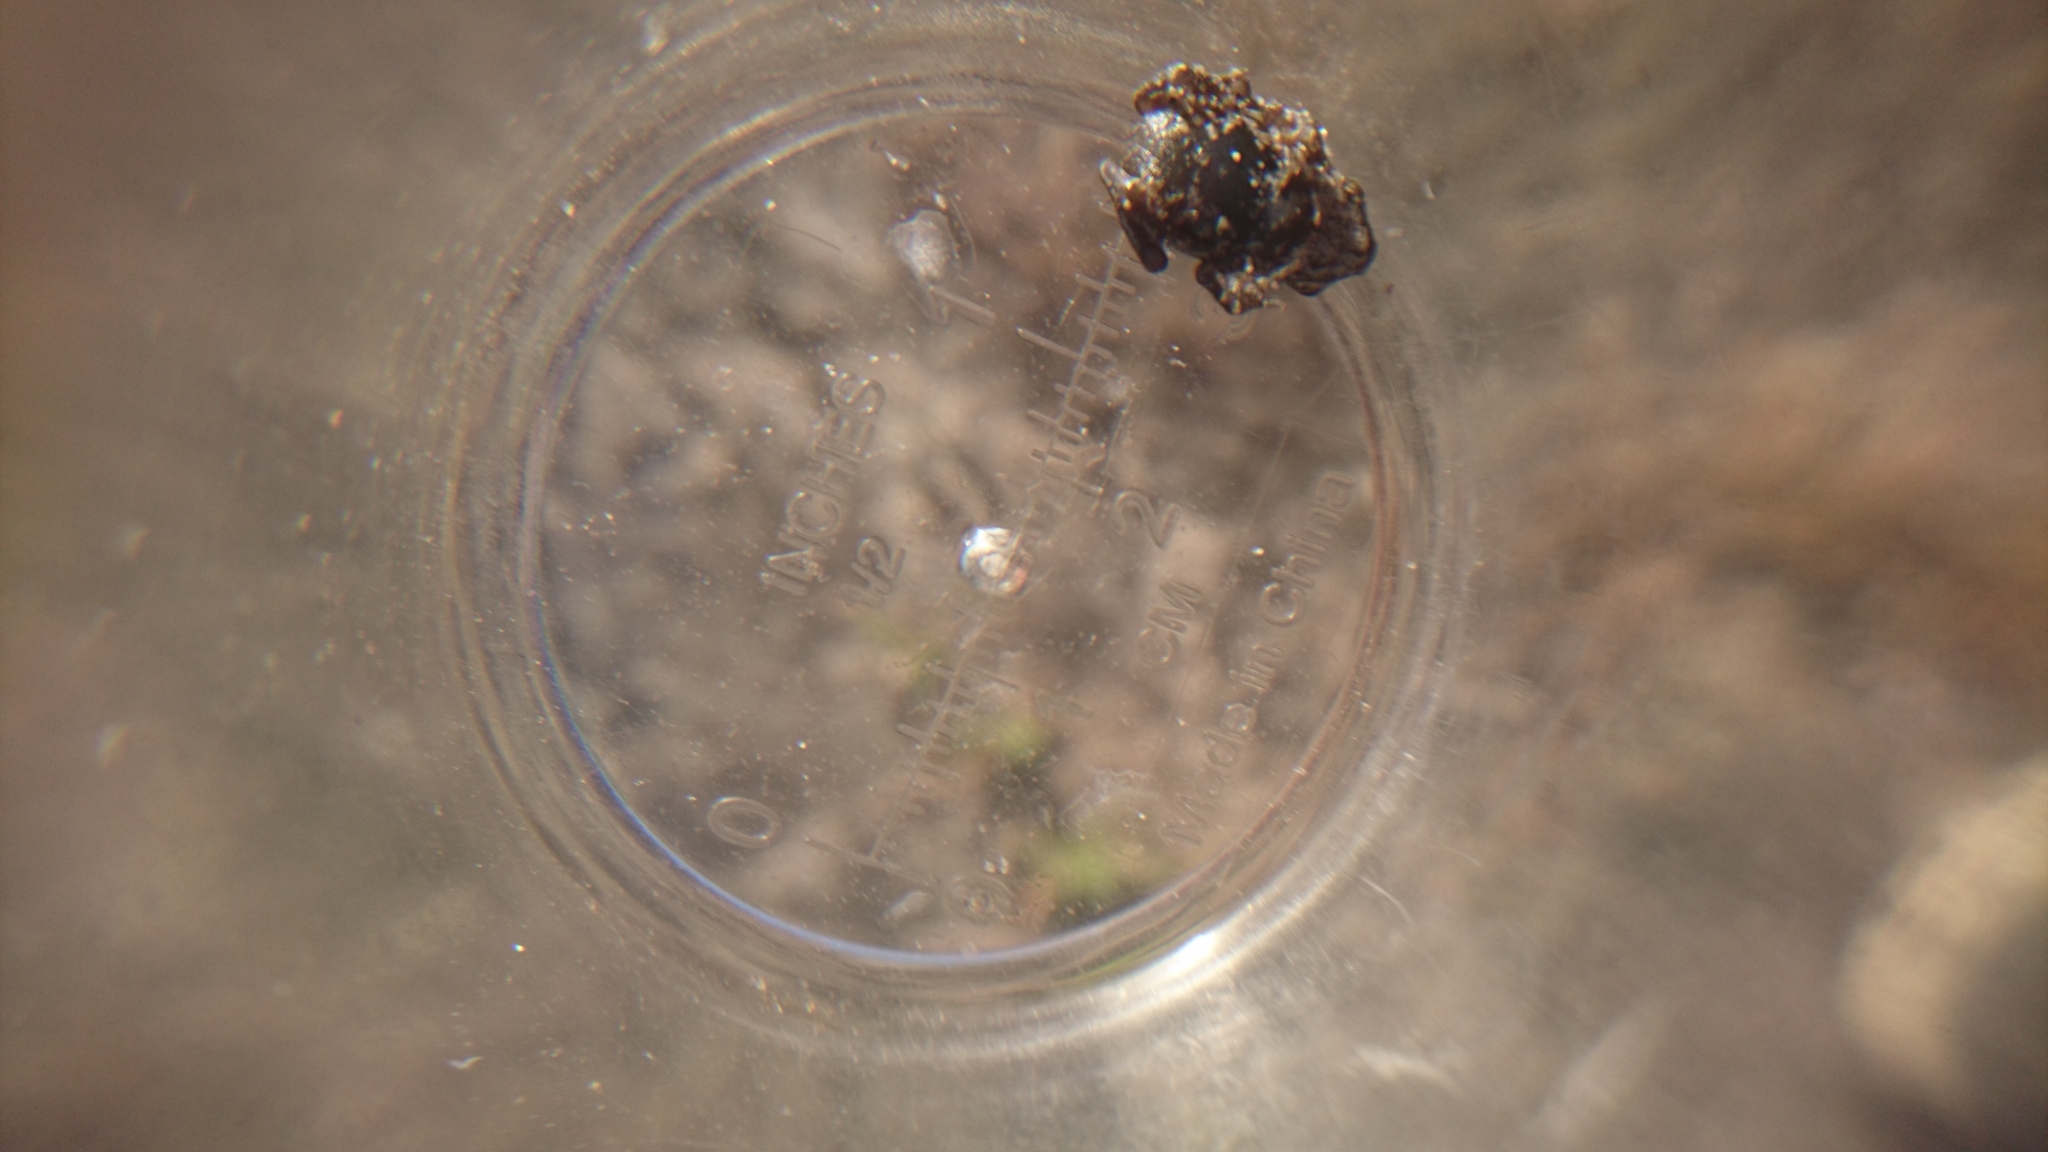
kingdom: Animalia
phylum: Chordata
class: Amphibia
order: Anura
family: Bufonidae
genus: Rhinella
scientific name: Rhinella marina
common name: Cane toad
